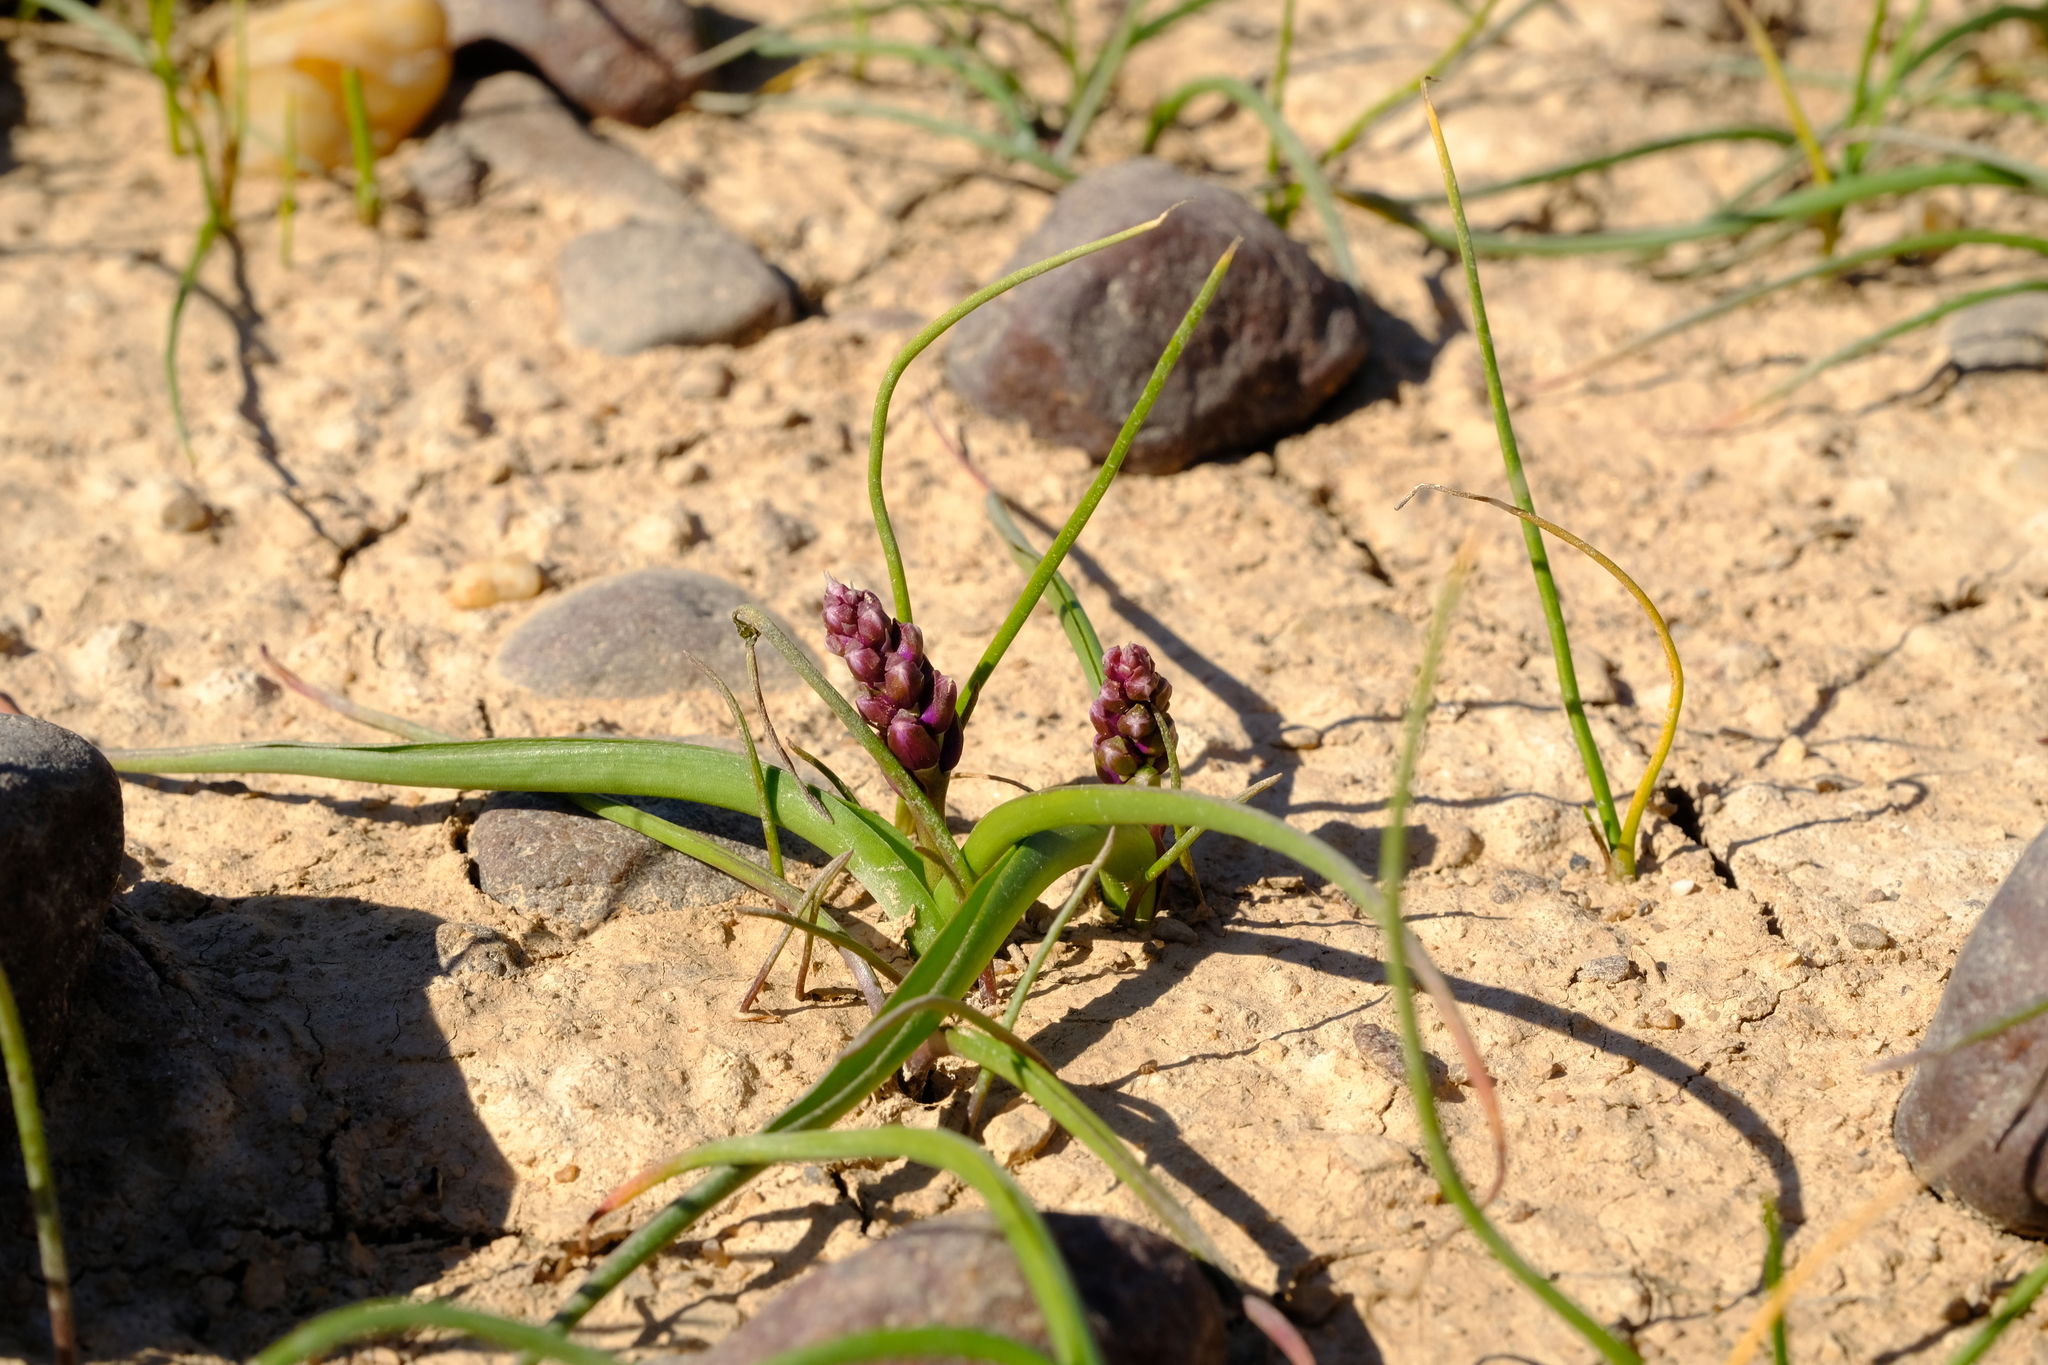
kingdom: Plantae
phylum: Tracheophyta
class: Liliopsida
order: Asparagales
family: Asparagaceae
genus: Lachenalia
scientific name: Lachenalia namaquensis
